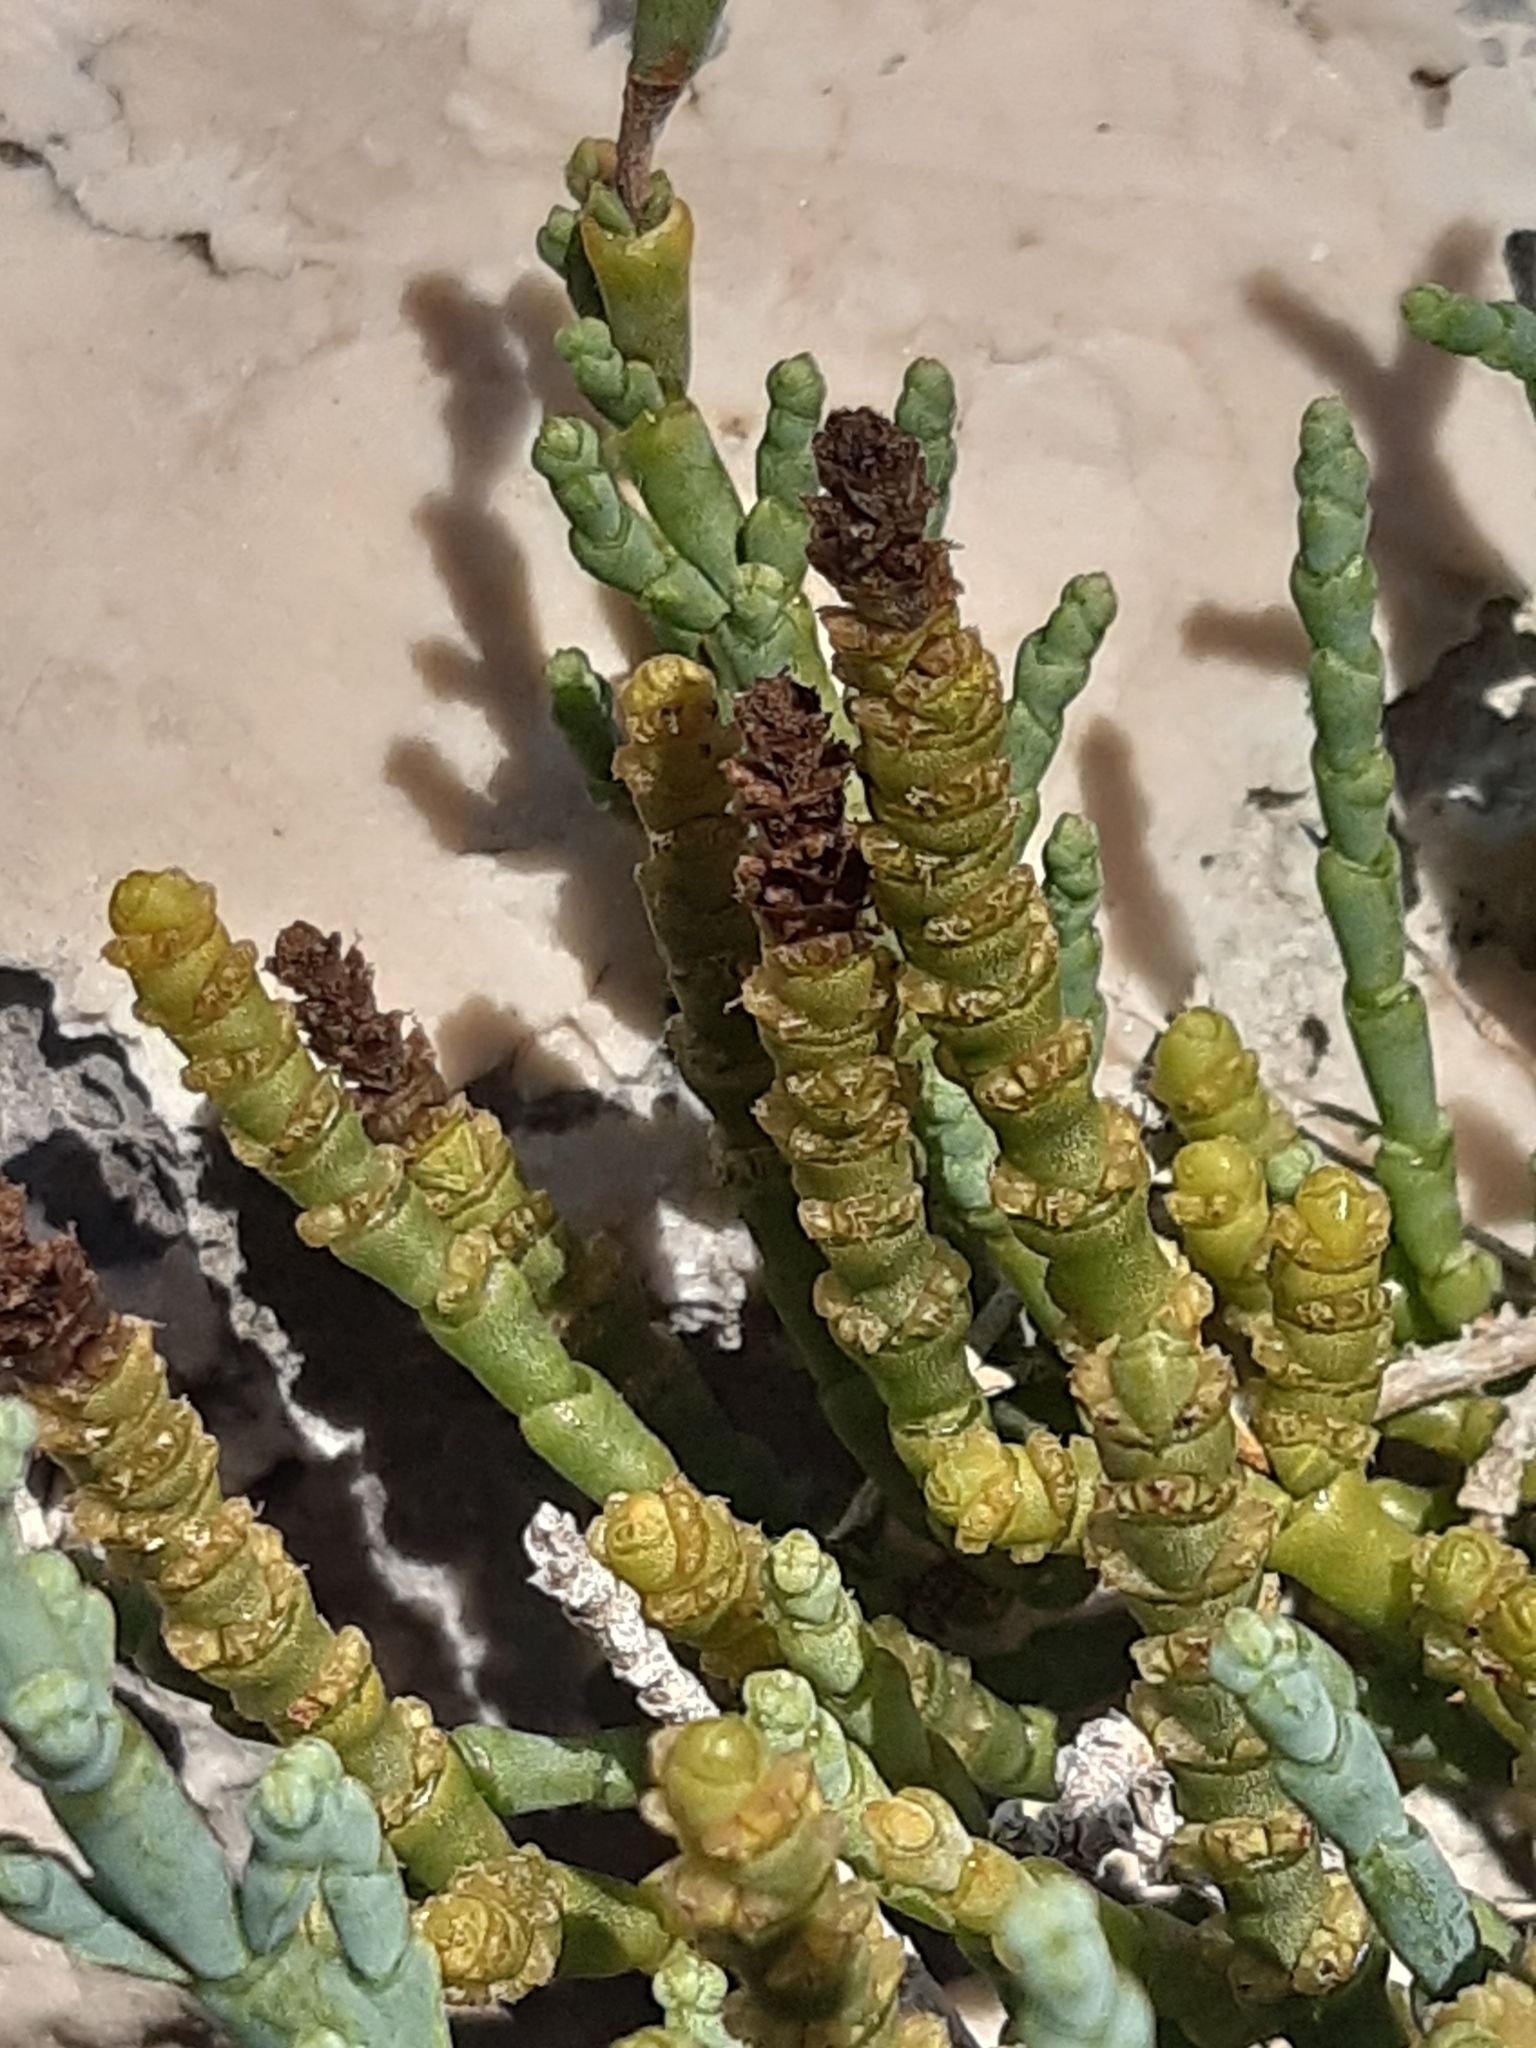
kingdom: Plantae
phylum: Tracheophyta
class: Magnoliopsida
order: Caryophyllales
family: Amaranthaceae
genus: Arthrocaulon
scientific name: Arthrocaulon macrostachyum
